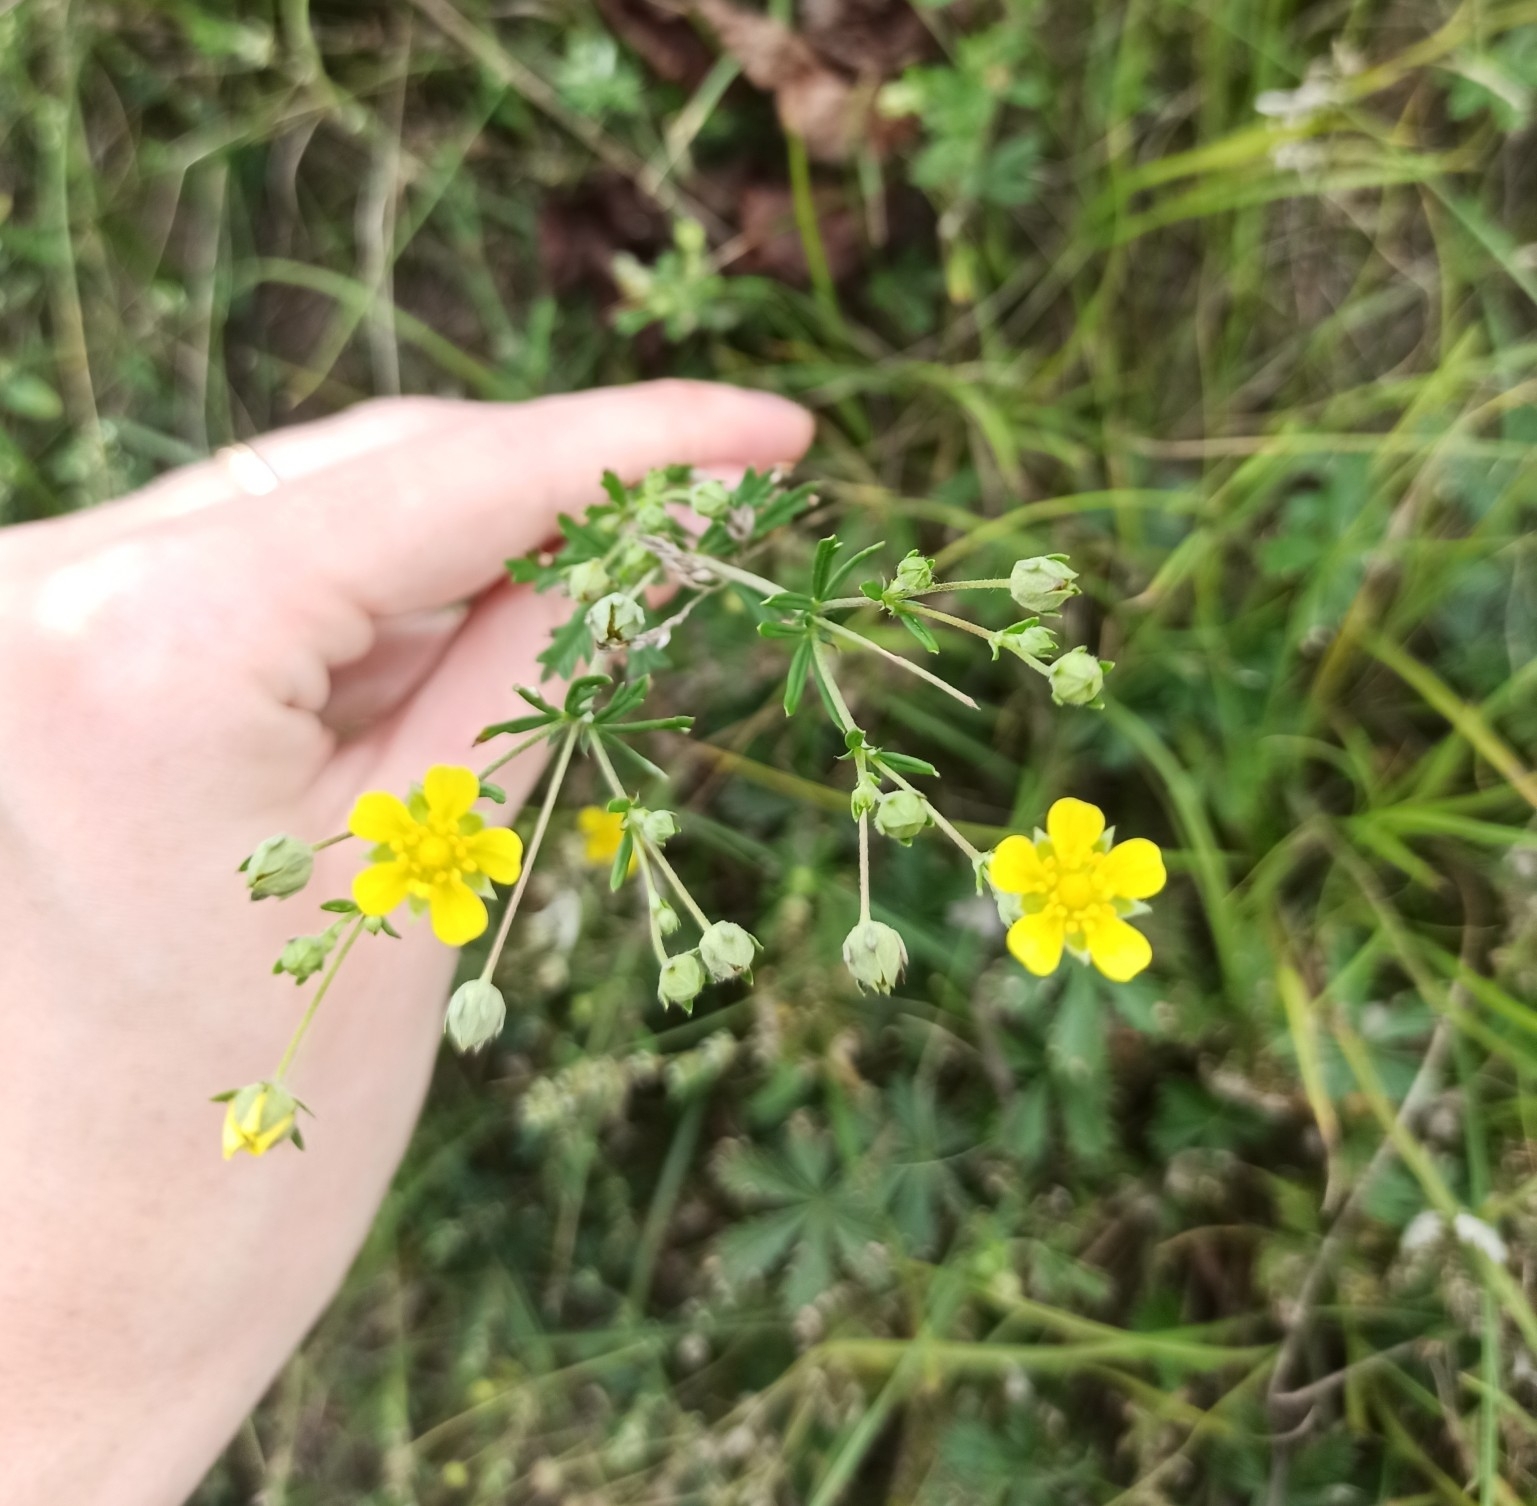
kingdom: Plantae
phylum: Tracheophyta
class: Magnoliopsida
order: Rosales
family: Rosaceae
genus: Potentilla
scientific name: Potentilla argentea
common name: Hoary cinquefoil
